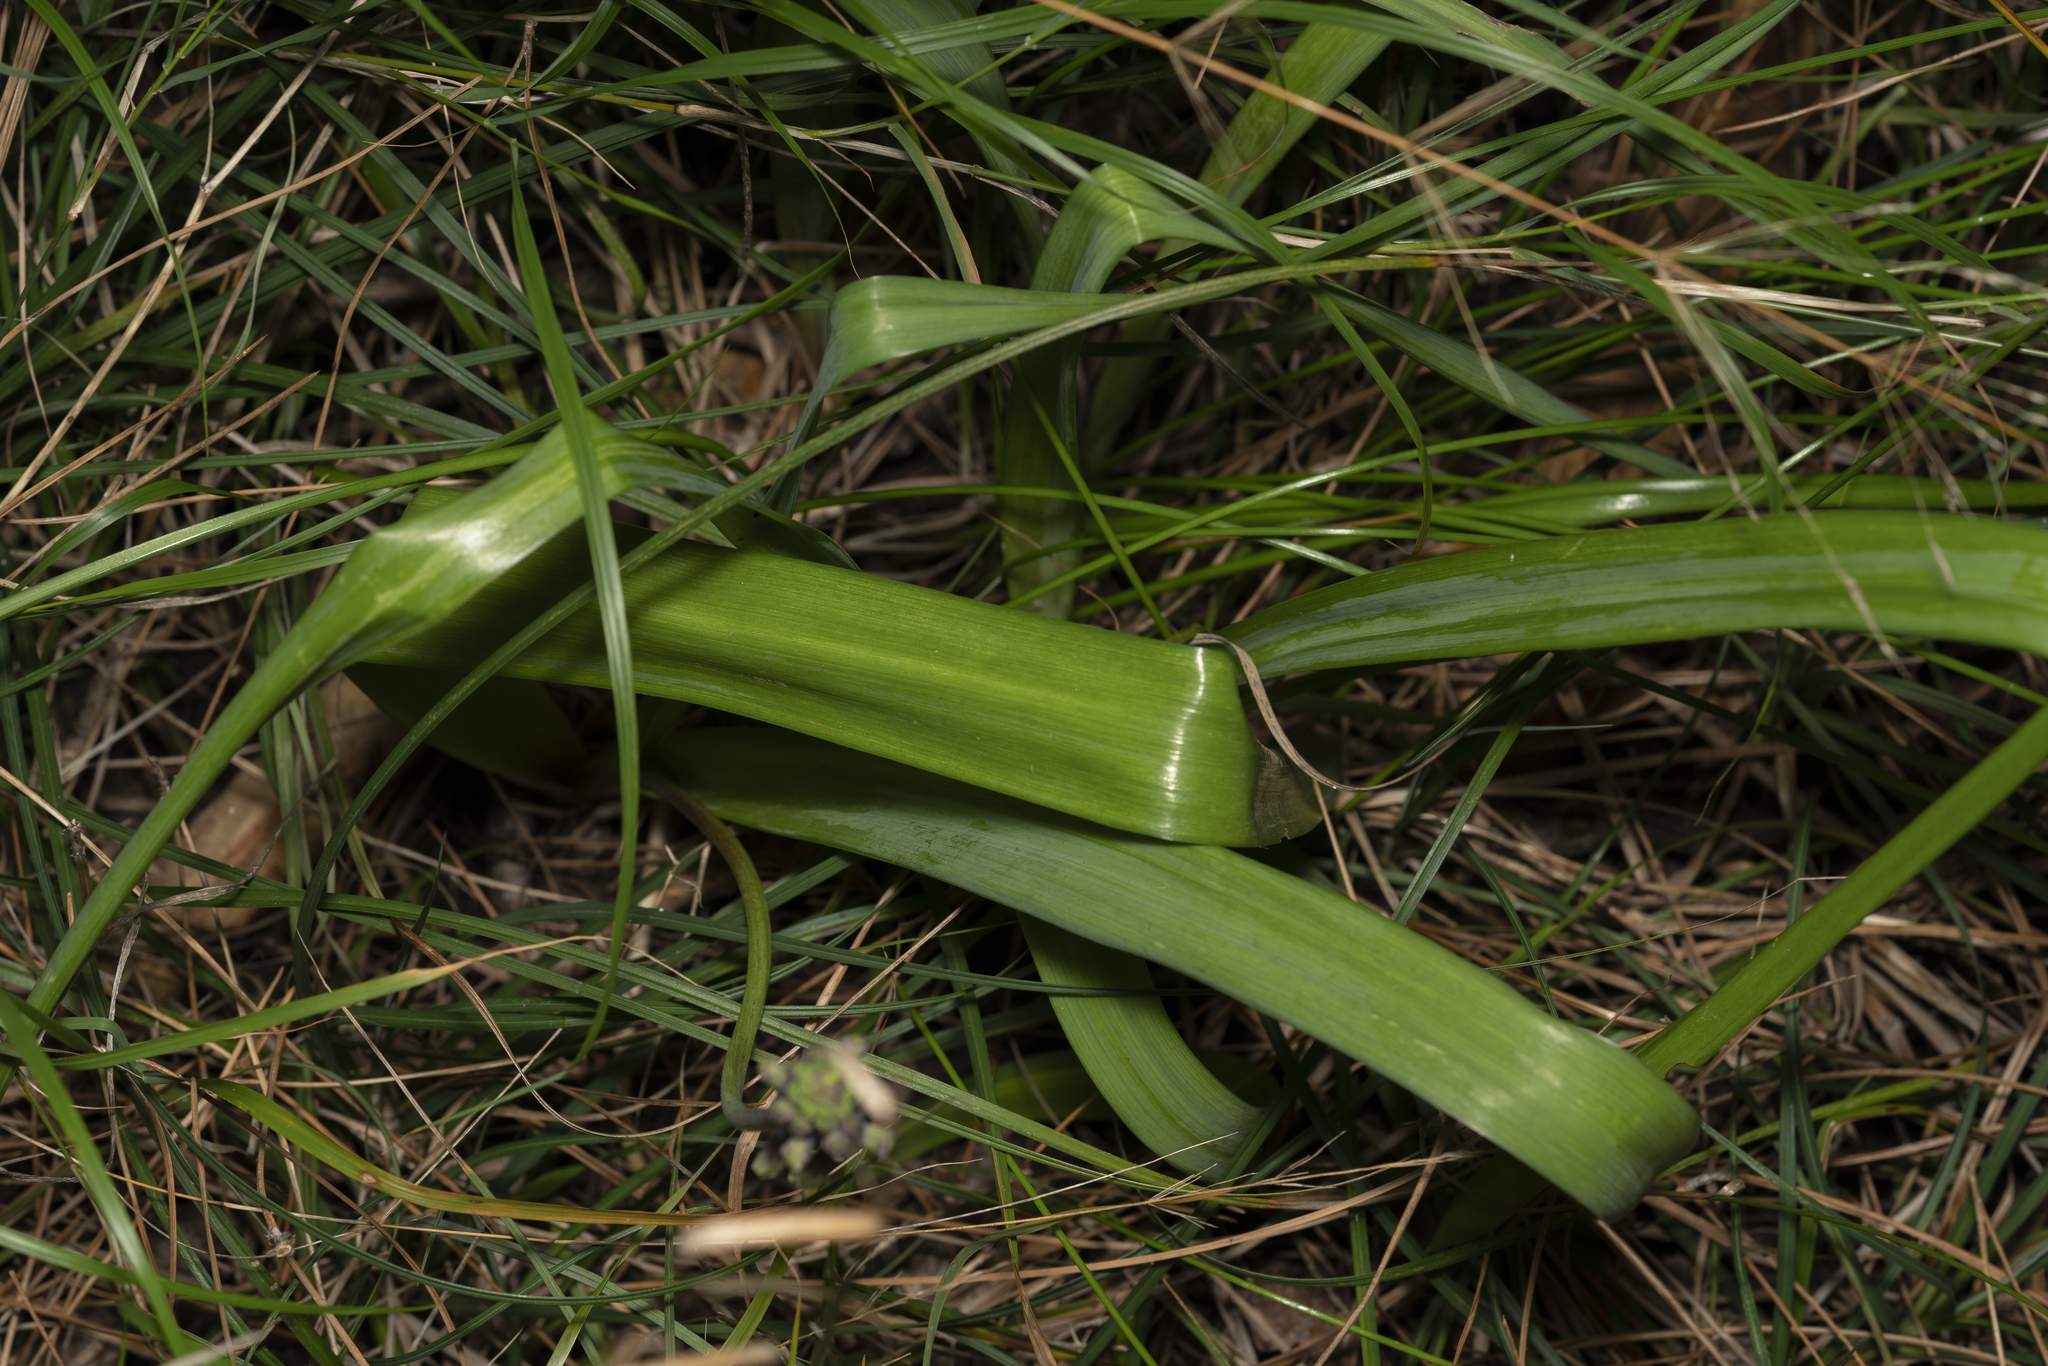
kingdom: Plantae
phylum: Tracheophyta
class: Liliopsida
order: Asparagales
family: Asparagaceae
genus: Bellevalia
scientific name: Bellevalia trifoliata
